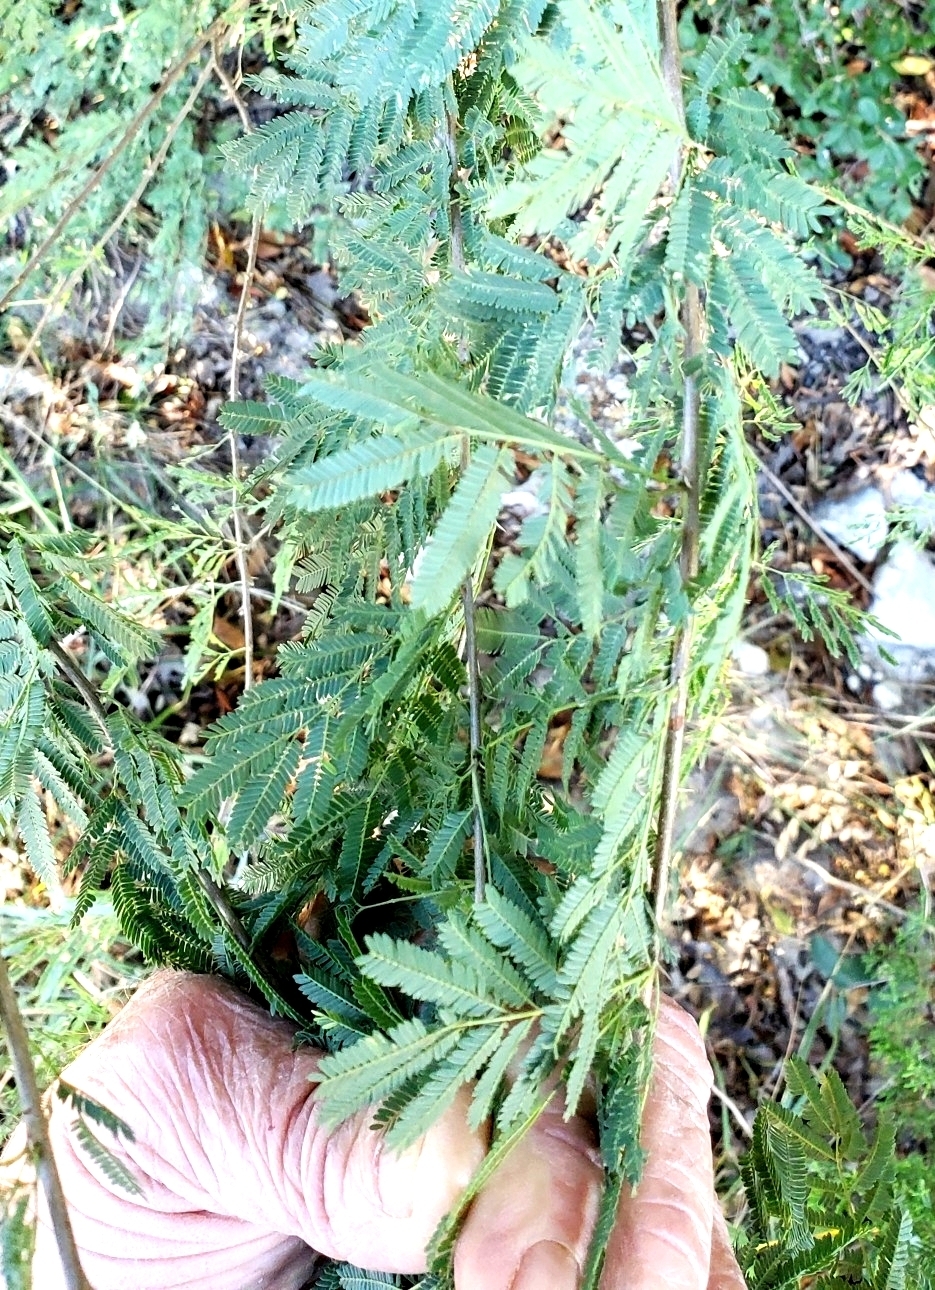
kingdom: Plantae
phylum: Tracheophyta
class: Magnoliopsida
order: Fabales
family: Fabaceae
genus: Vachellia
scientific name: Vachellia farnesiana
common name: Sweet acacia
